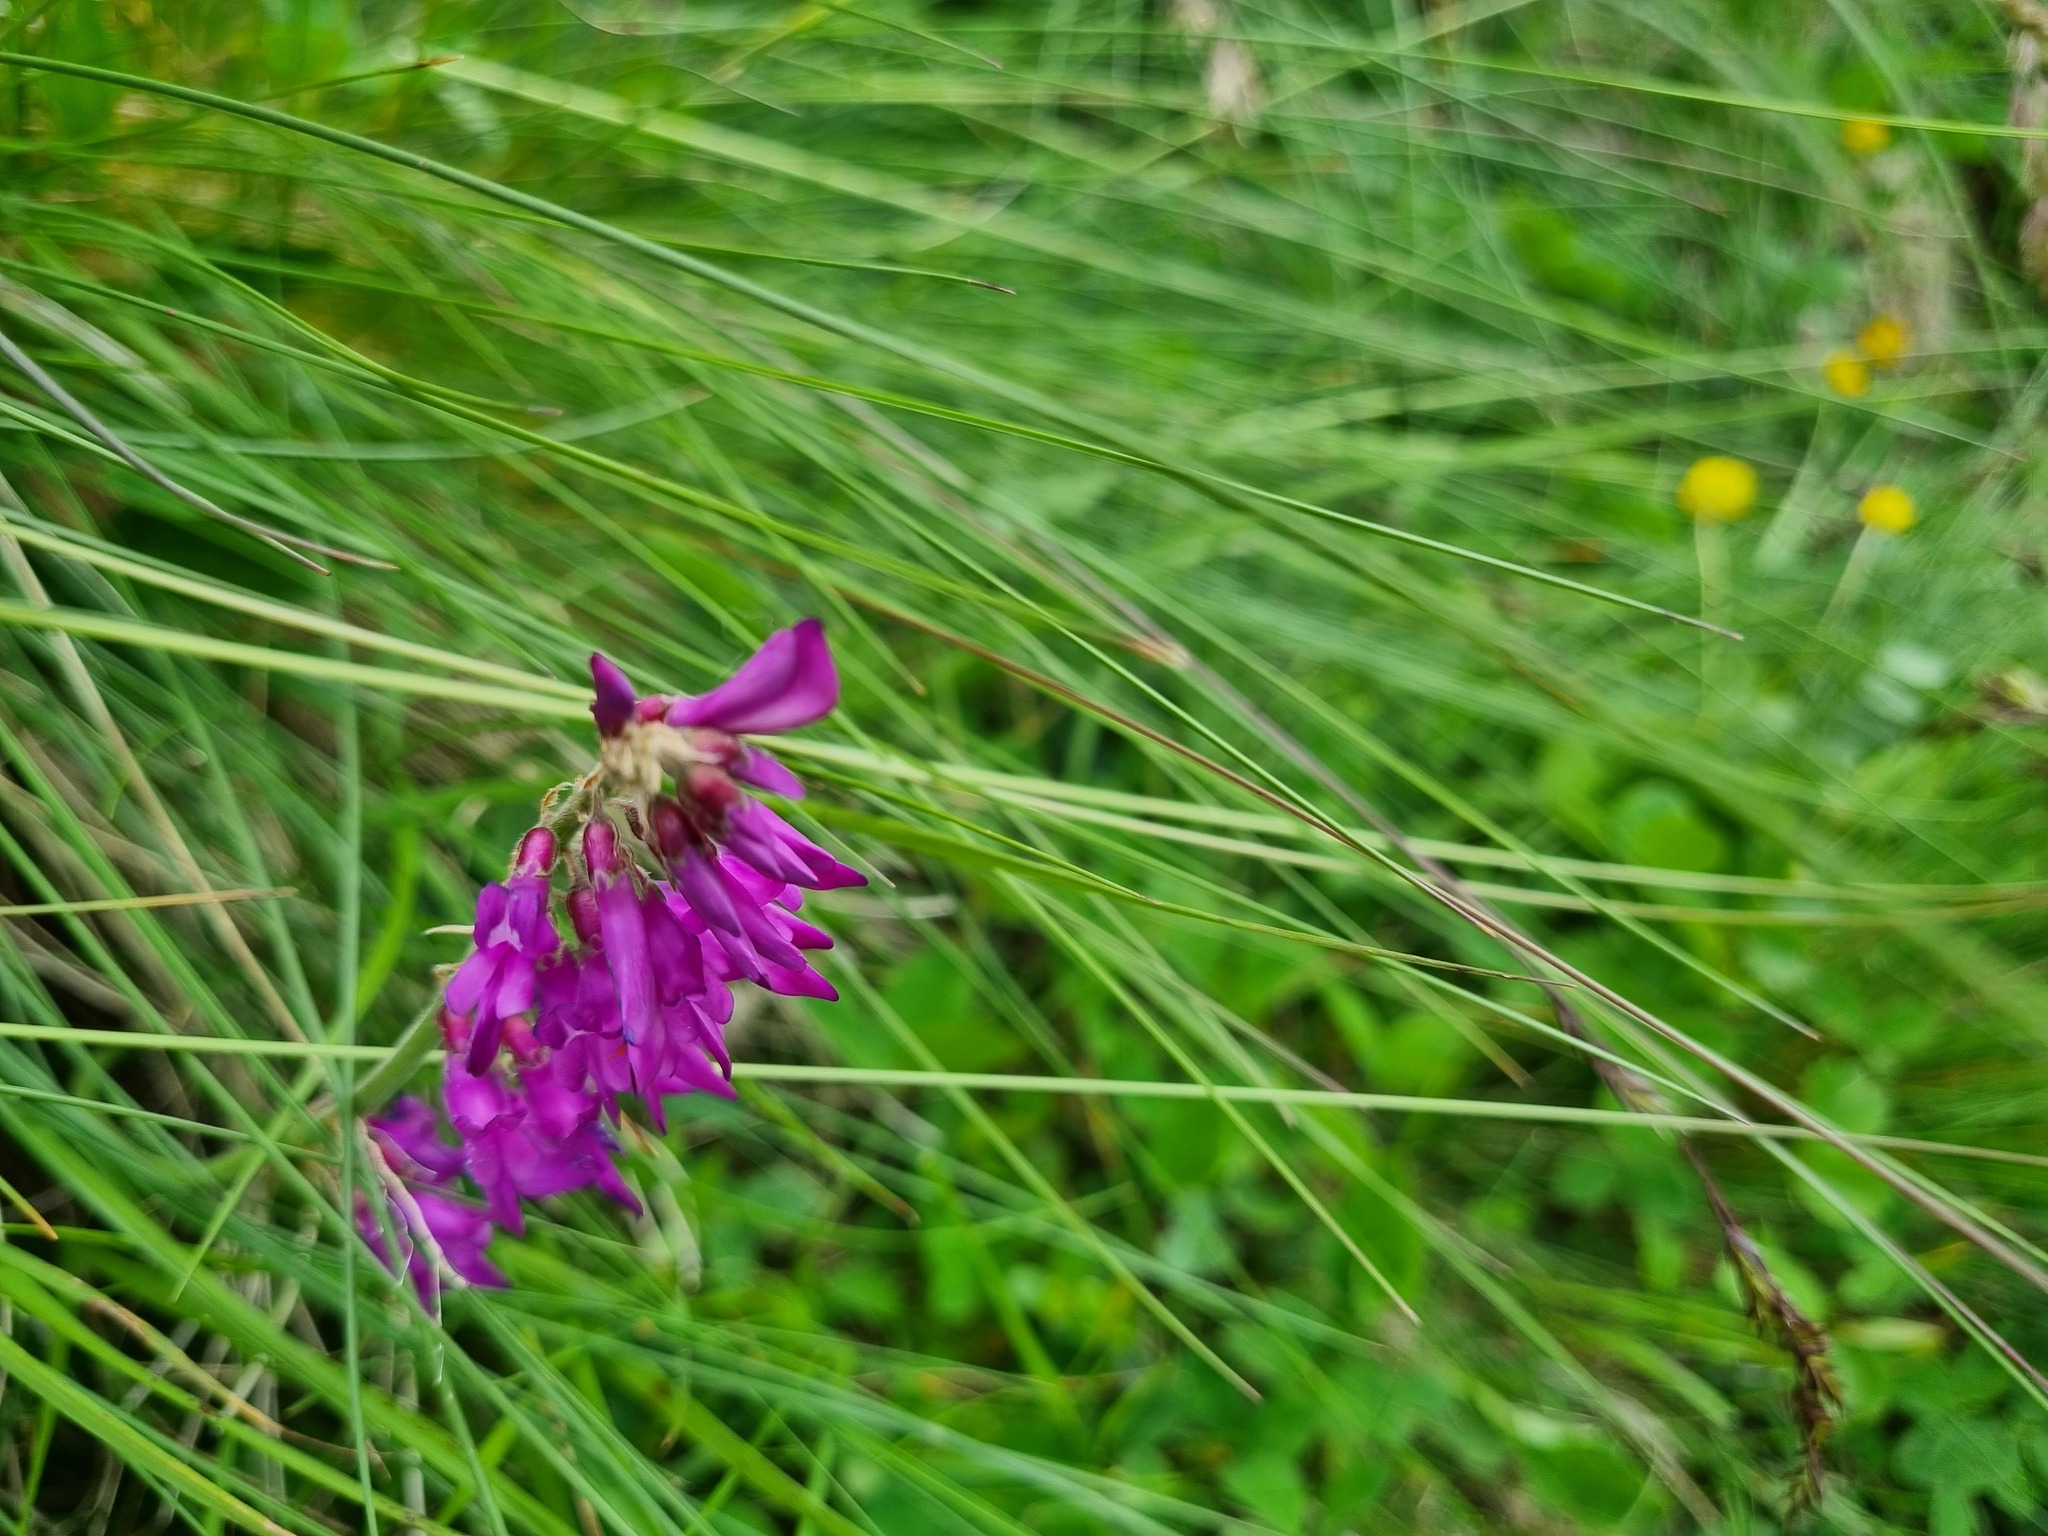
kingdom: Plantae
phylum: Tracheophyta
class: Magnoliopsida
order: Fabales
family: Fabaceae
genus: Hedysarum
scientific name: Hedysarum caucasicum
